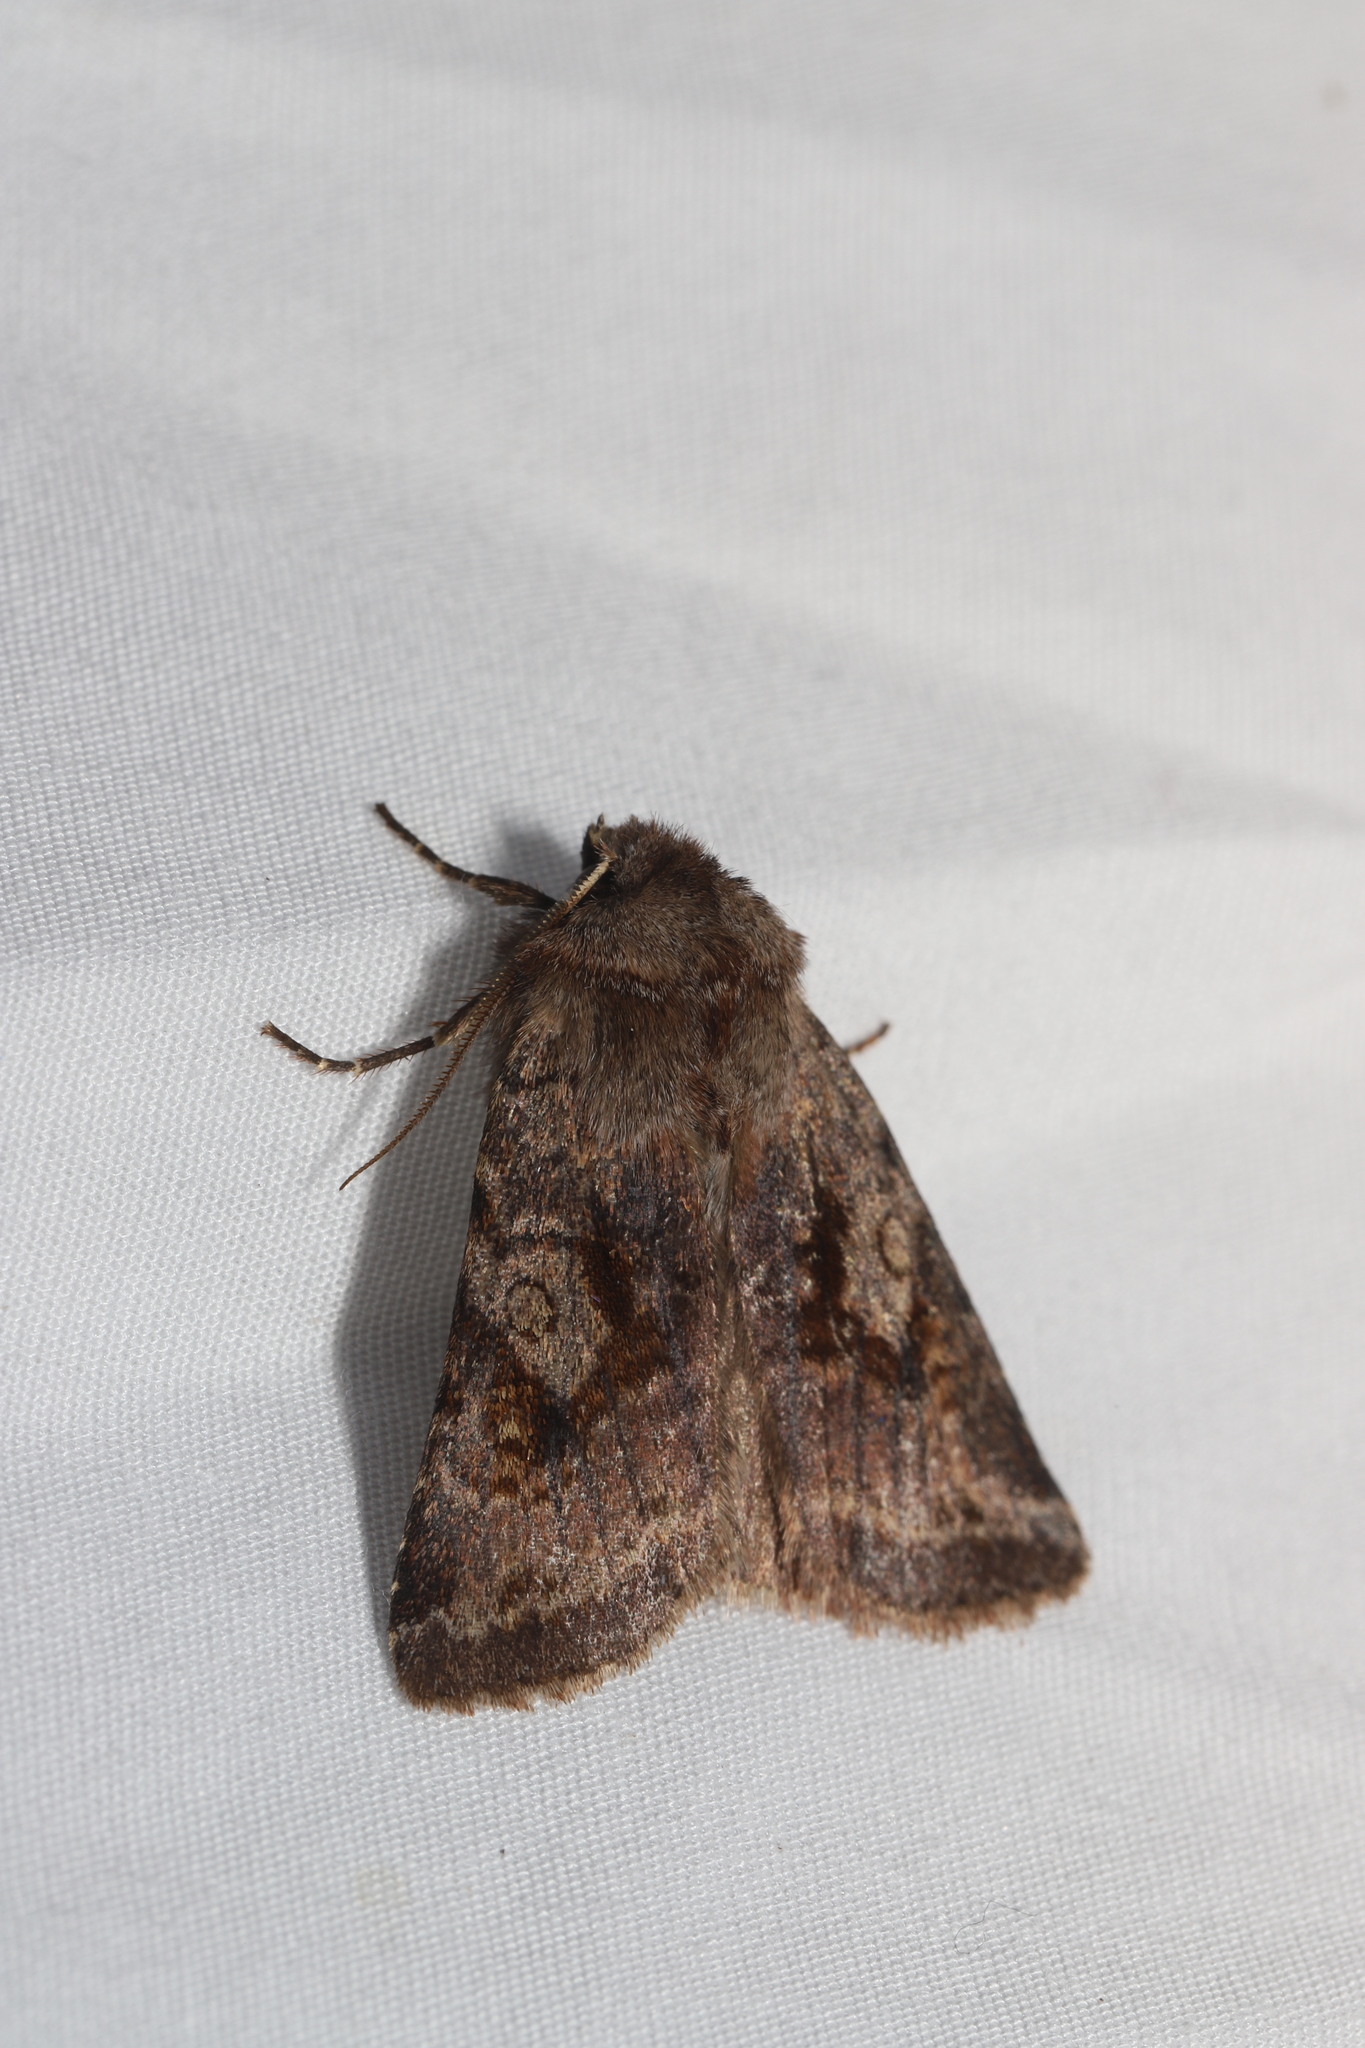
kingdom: Animalia
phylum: Arthropoda
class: Insecta
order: Lepidoptera
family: Noctuidae
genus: Cerastis
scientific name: Cerastis salicarum
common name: Willow dart
